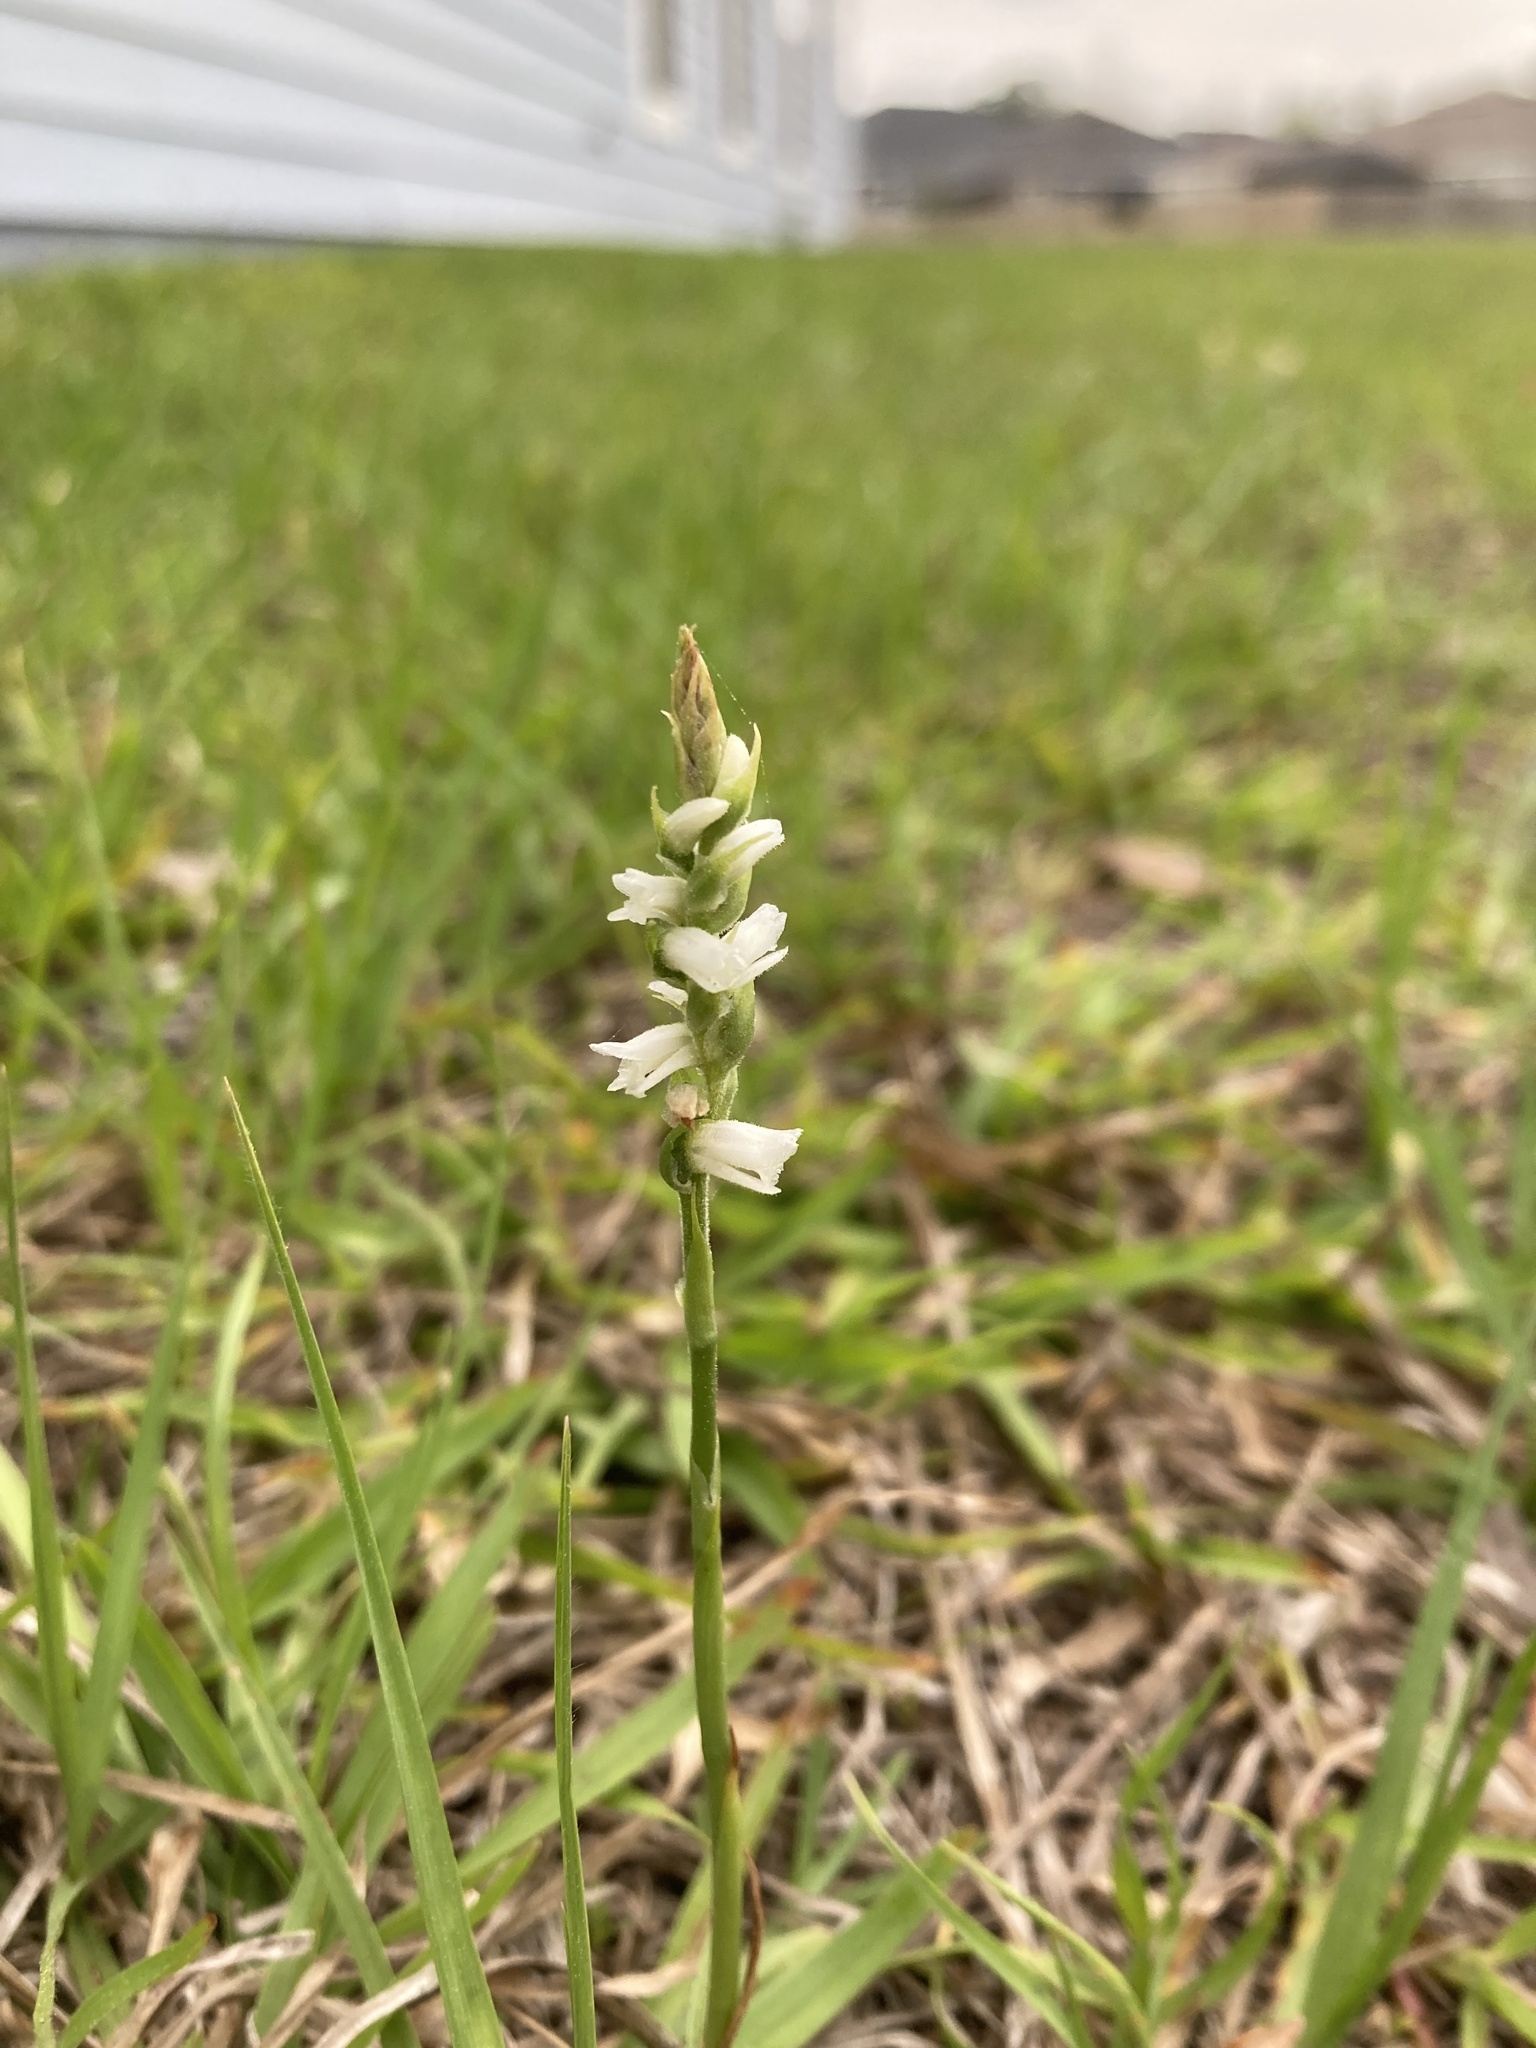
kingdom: Plantae
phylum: Tracheophyta
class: Liliopsida
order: Asparagales
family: Orchidaceae
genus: Spiranthes
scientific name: Spiranthes vernalis
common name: Spring ladies'-tresses
